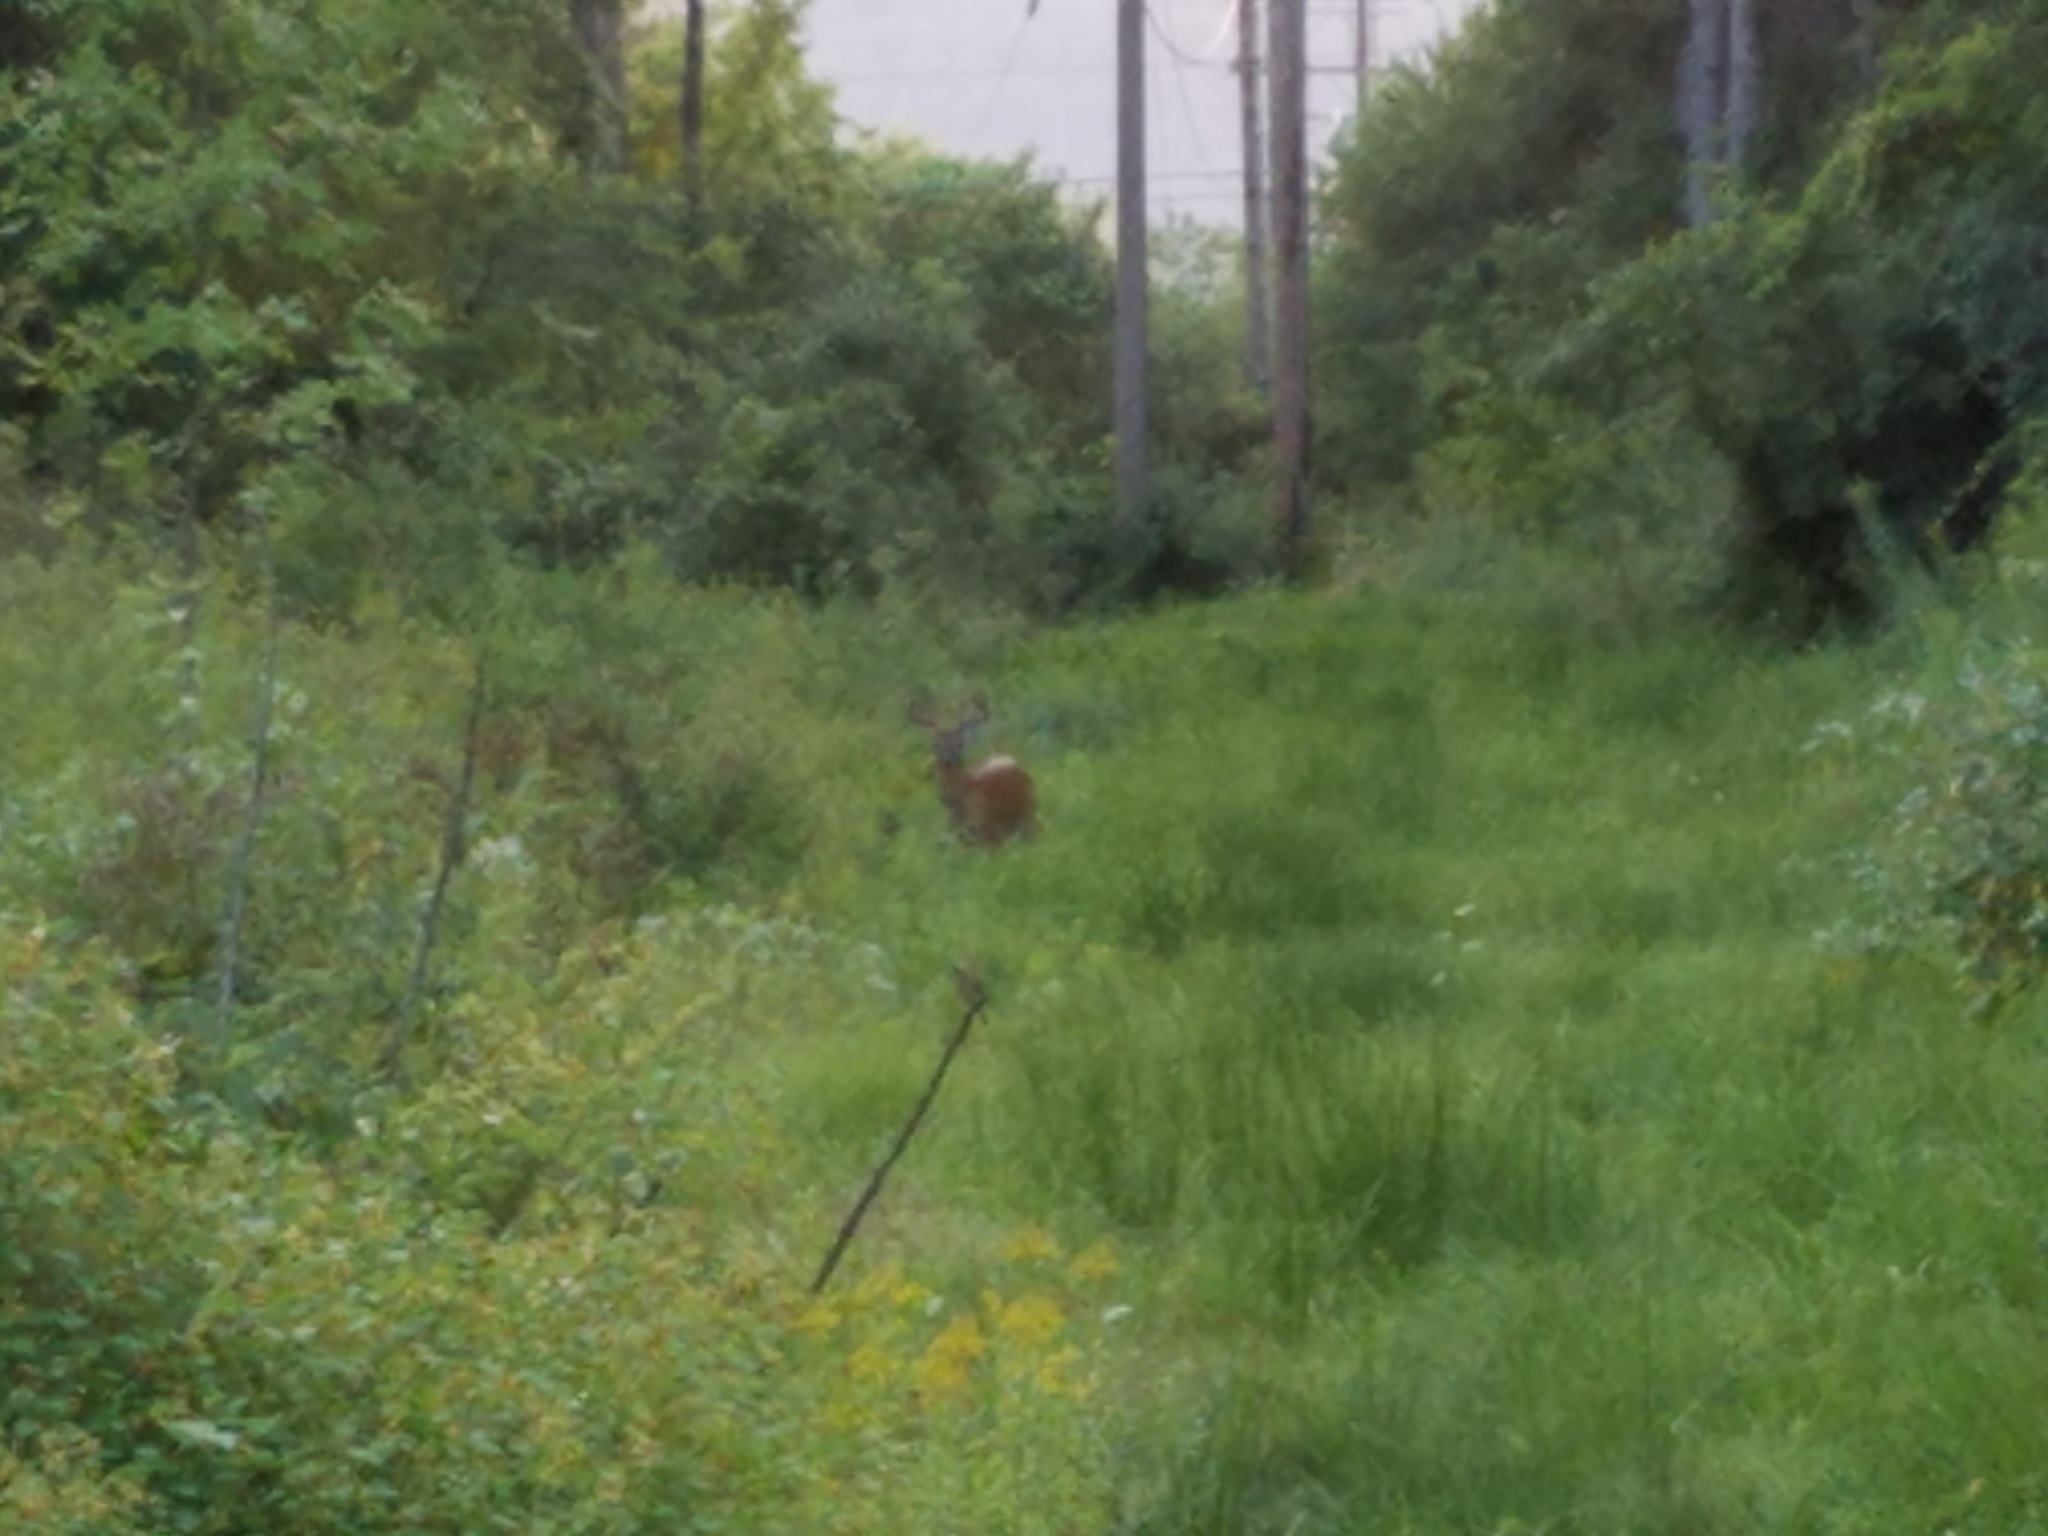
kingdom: Animalia
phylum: Chordata
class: Mammalia
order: Artiodactyla
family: Cervidae
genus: Odocoileus
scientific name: Odocoileus virginianus
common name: White-tailed deer
